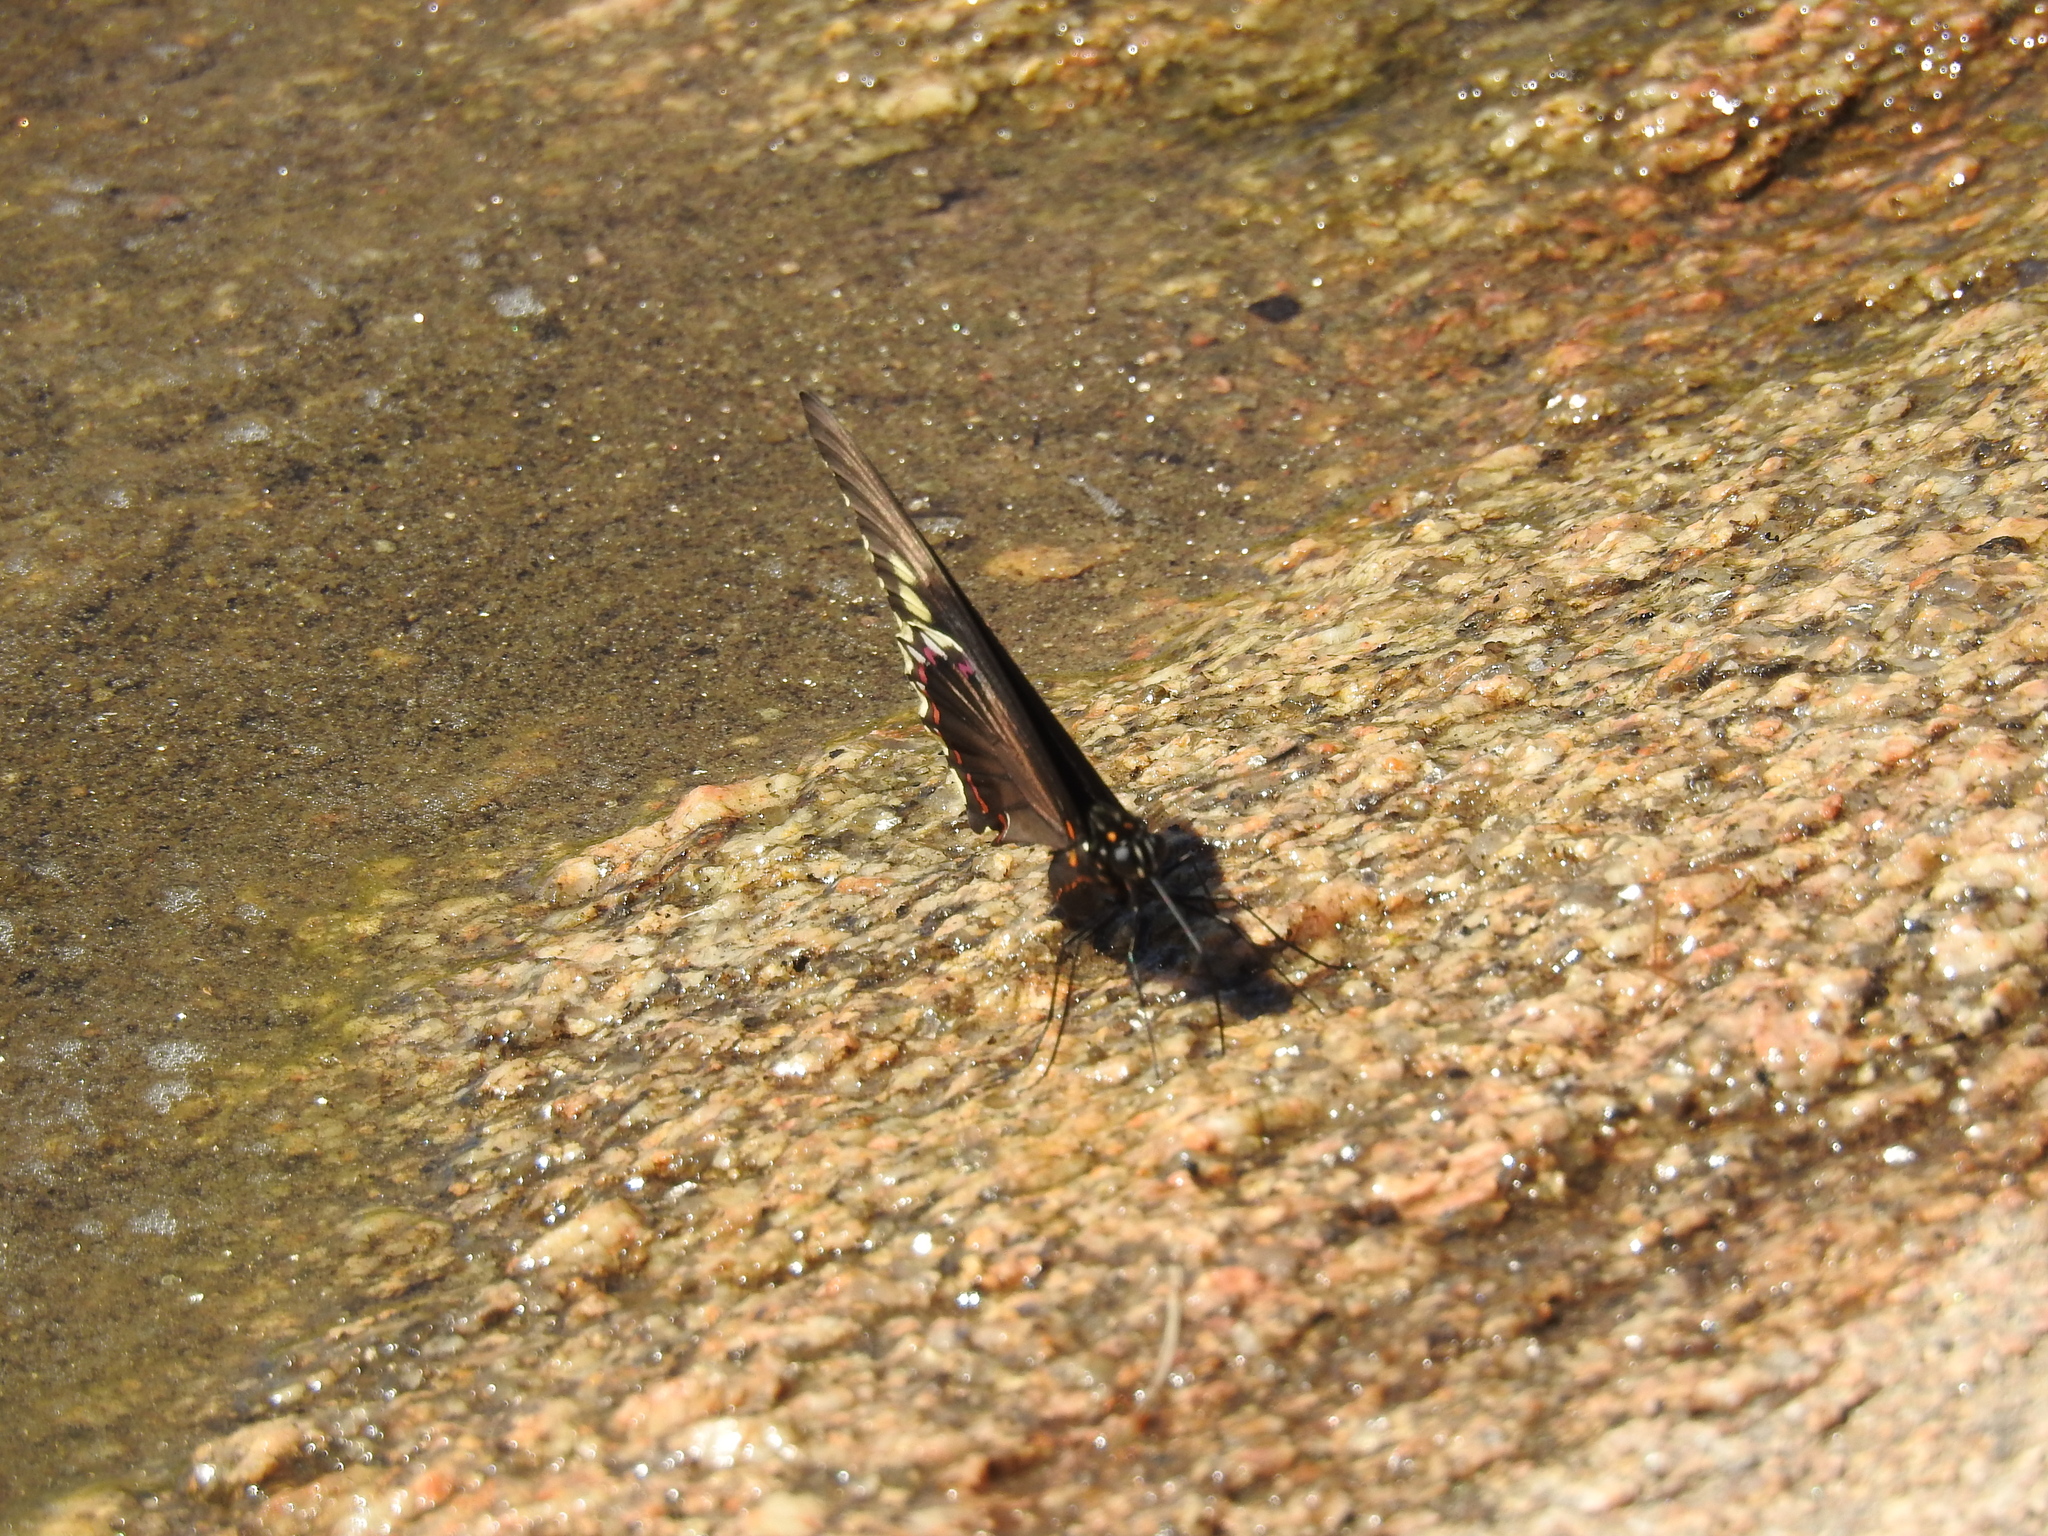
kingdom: Animalia
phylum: Arthropoda
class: Insecta
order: Lepidoptera
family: Papilionidae
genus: Battus
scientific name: Battus polydamas
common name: Polydamas swallowtail
